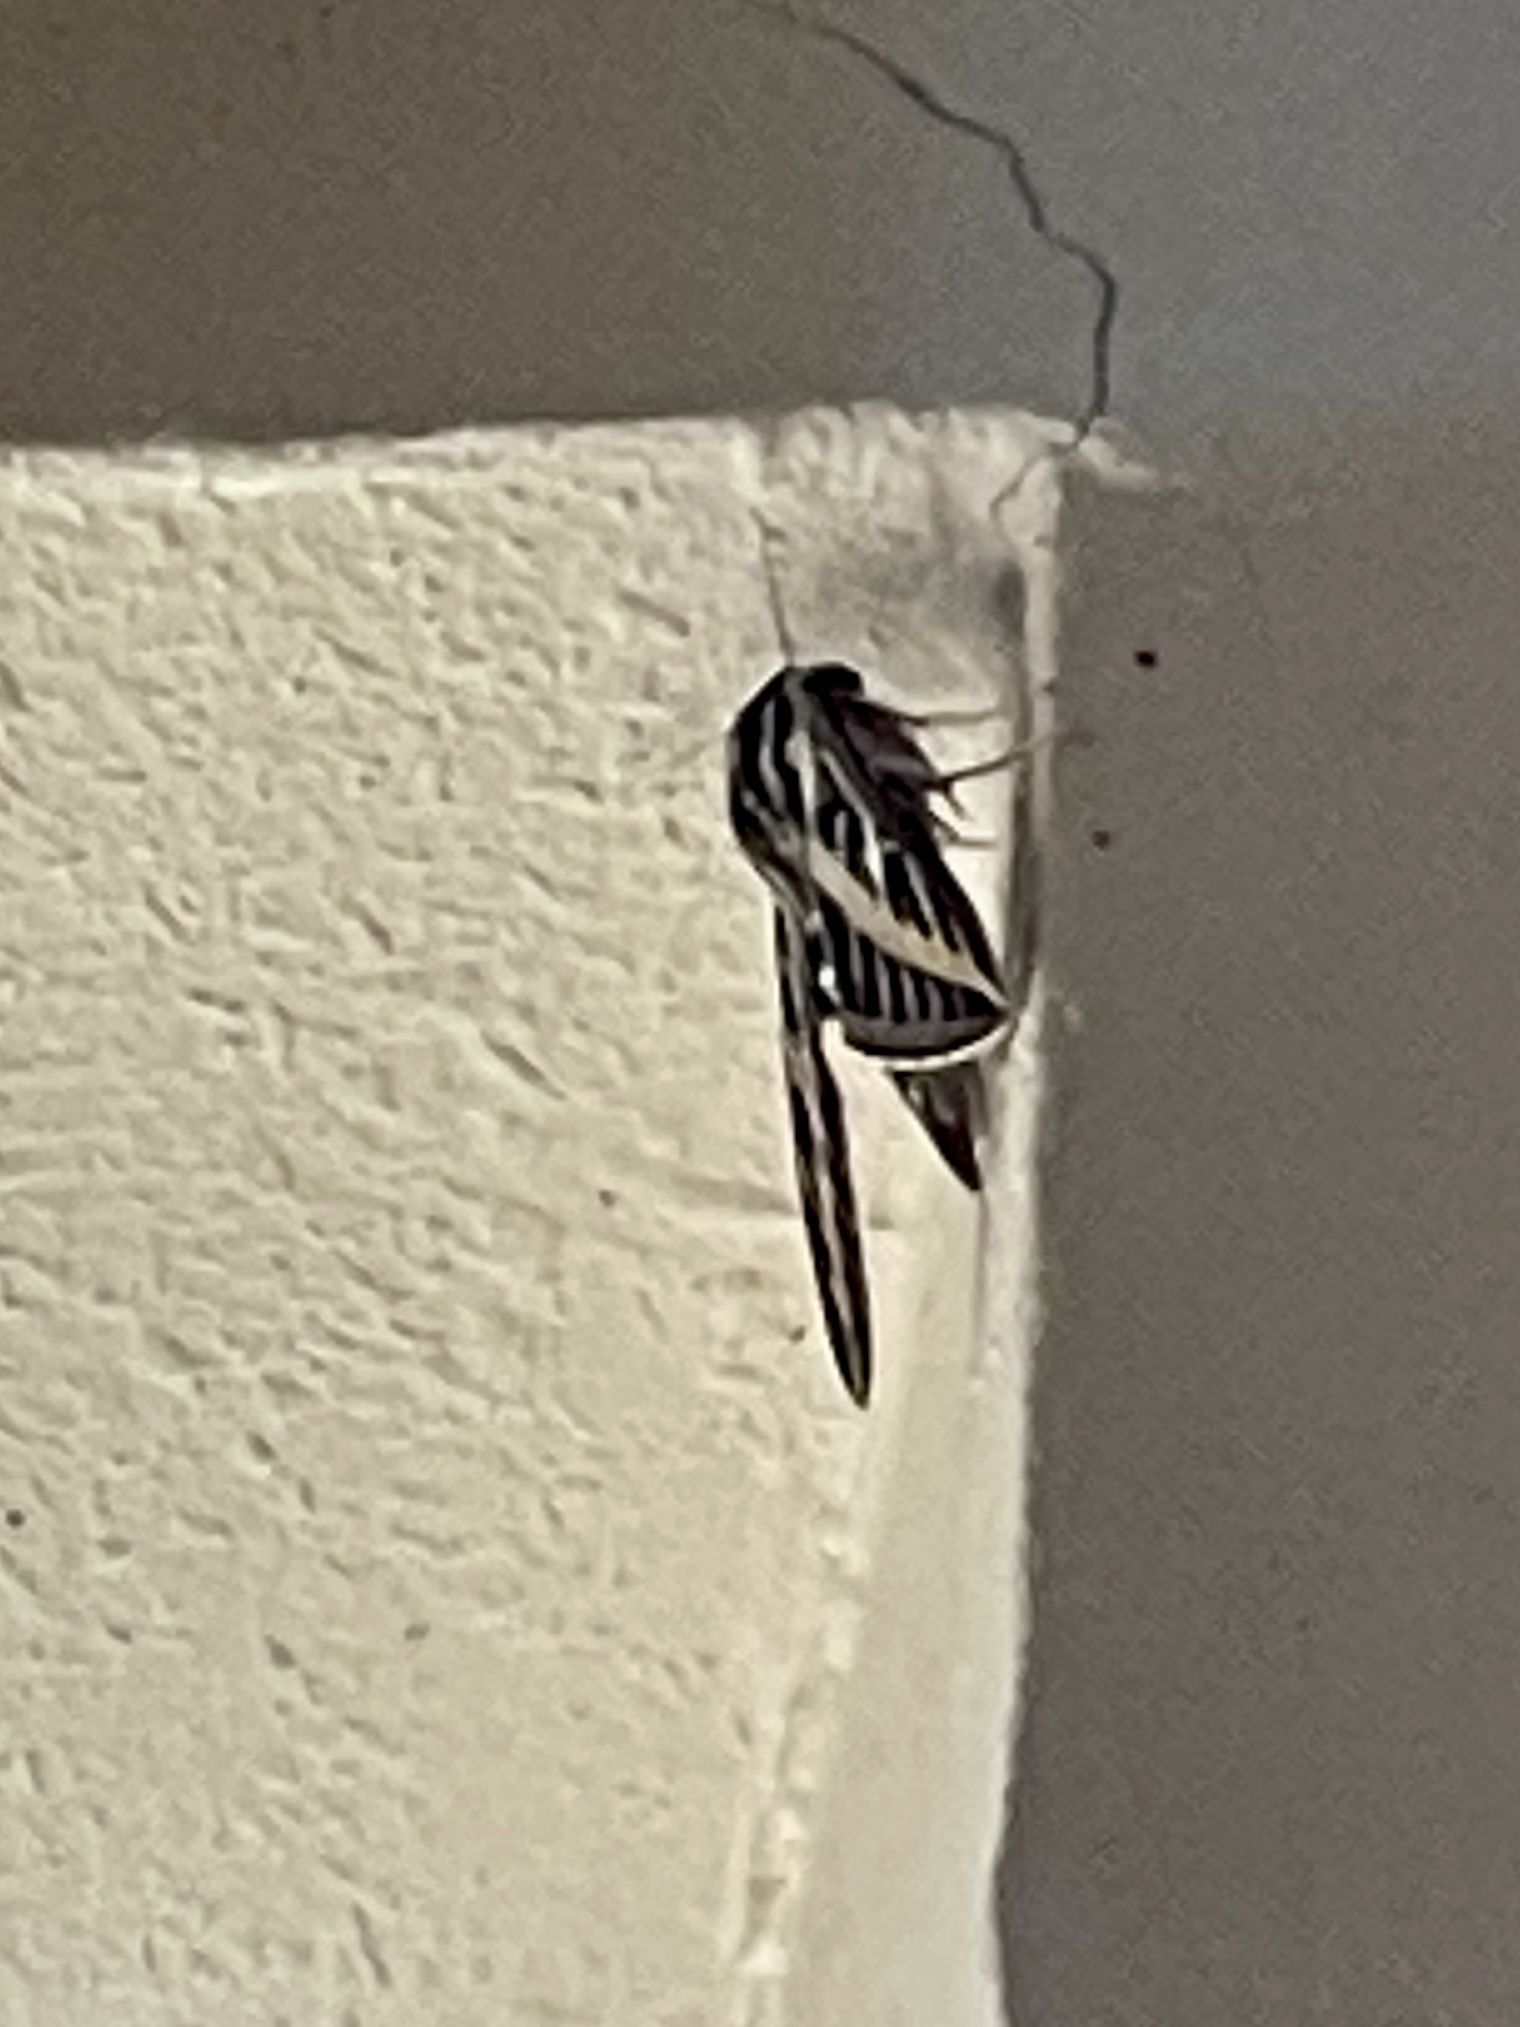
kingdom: Animalia
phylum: Arthropoda
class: Insecta
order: Lepidoptera
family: Sphingidae
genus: Hyles
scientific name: Hyles lineata
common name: White-lined sphinx
